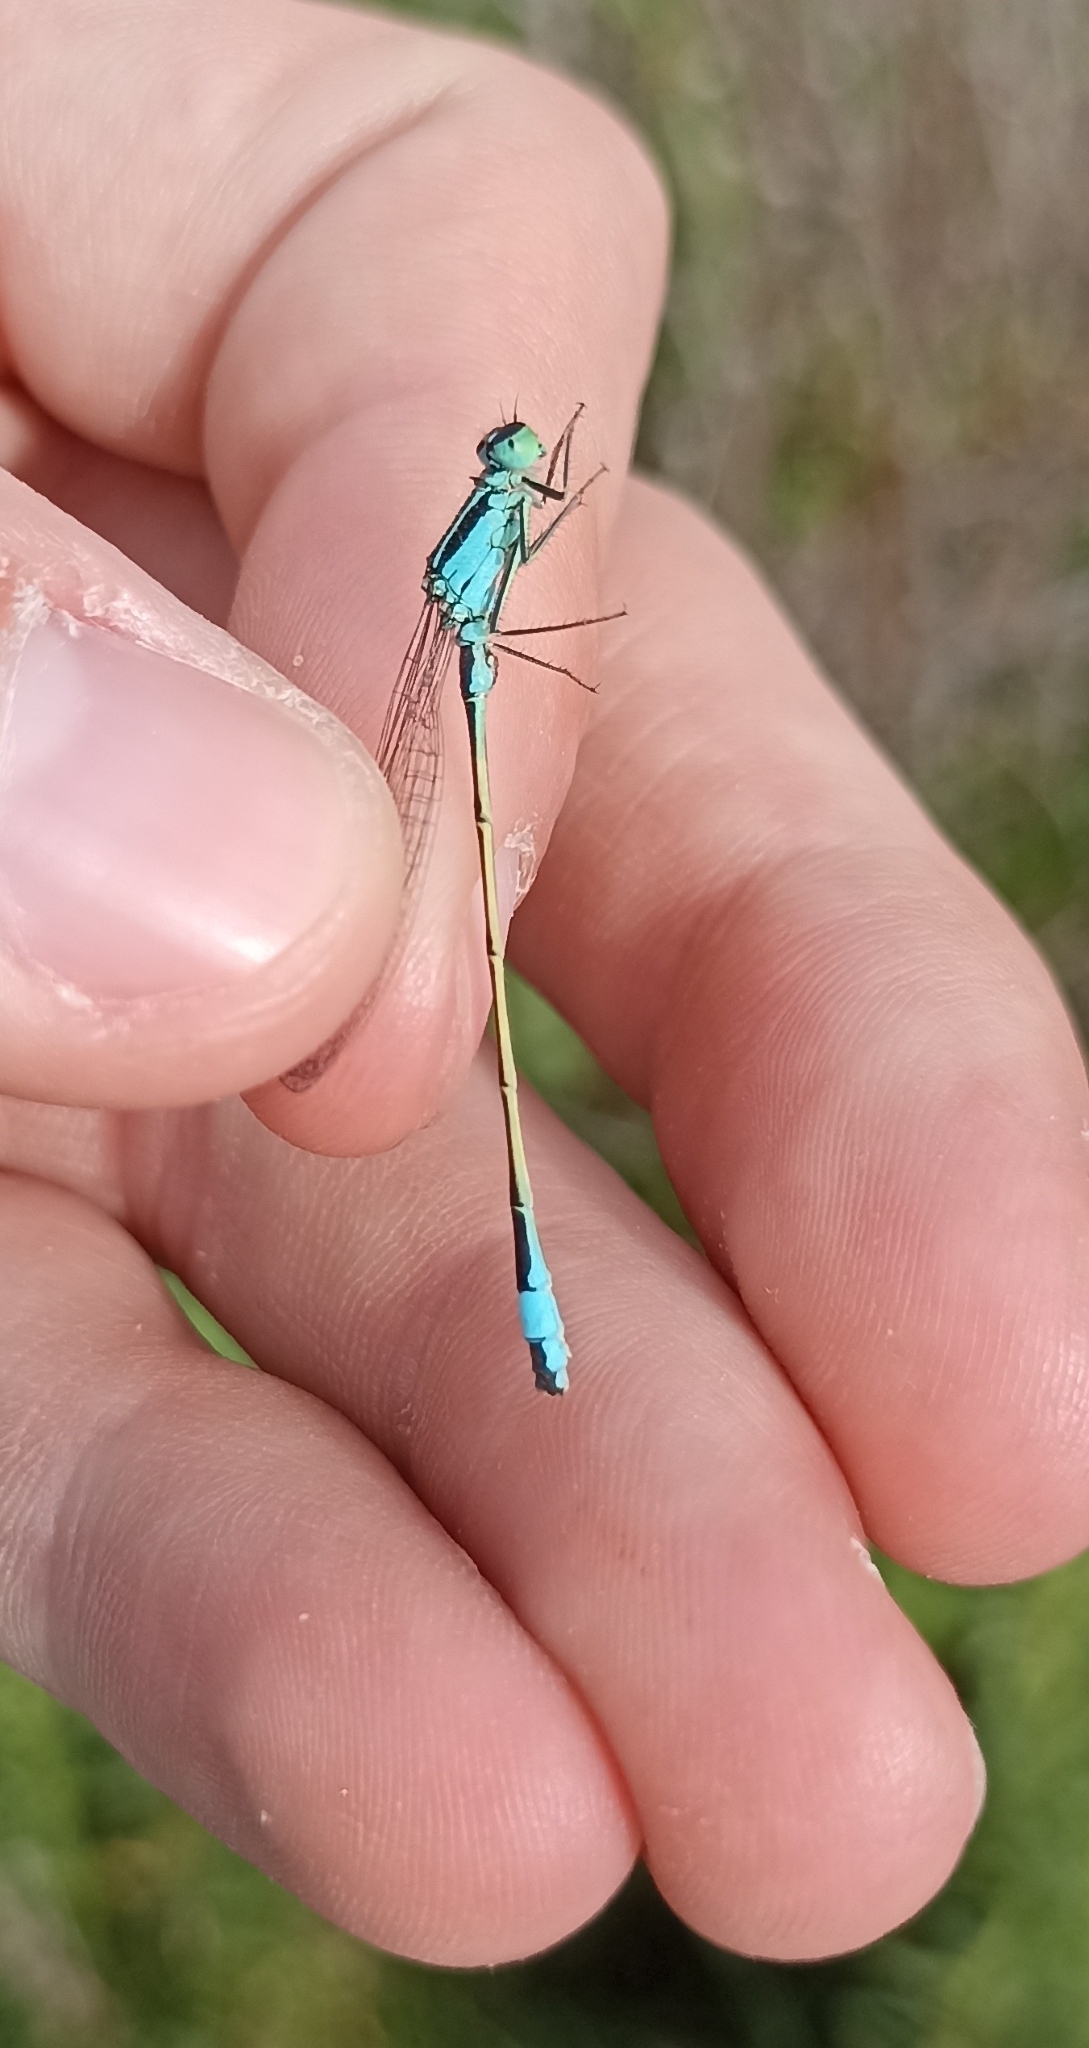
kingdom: Animalia
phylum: Arthropoda
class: Insecta
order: Odonata
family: Coenagrionidae
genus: Ischnura
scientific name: Ischnura elegans
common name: Blue-tailed damselfly
